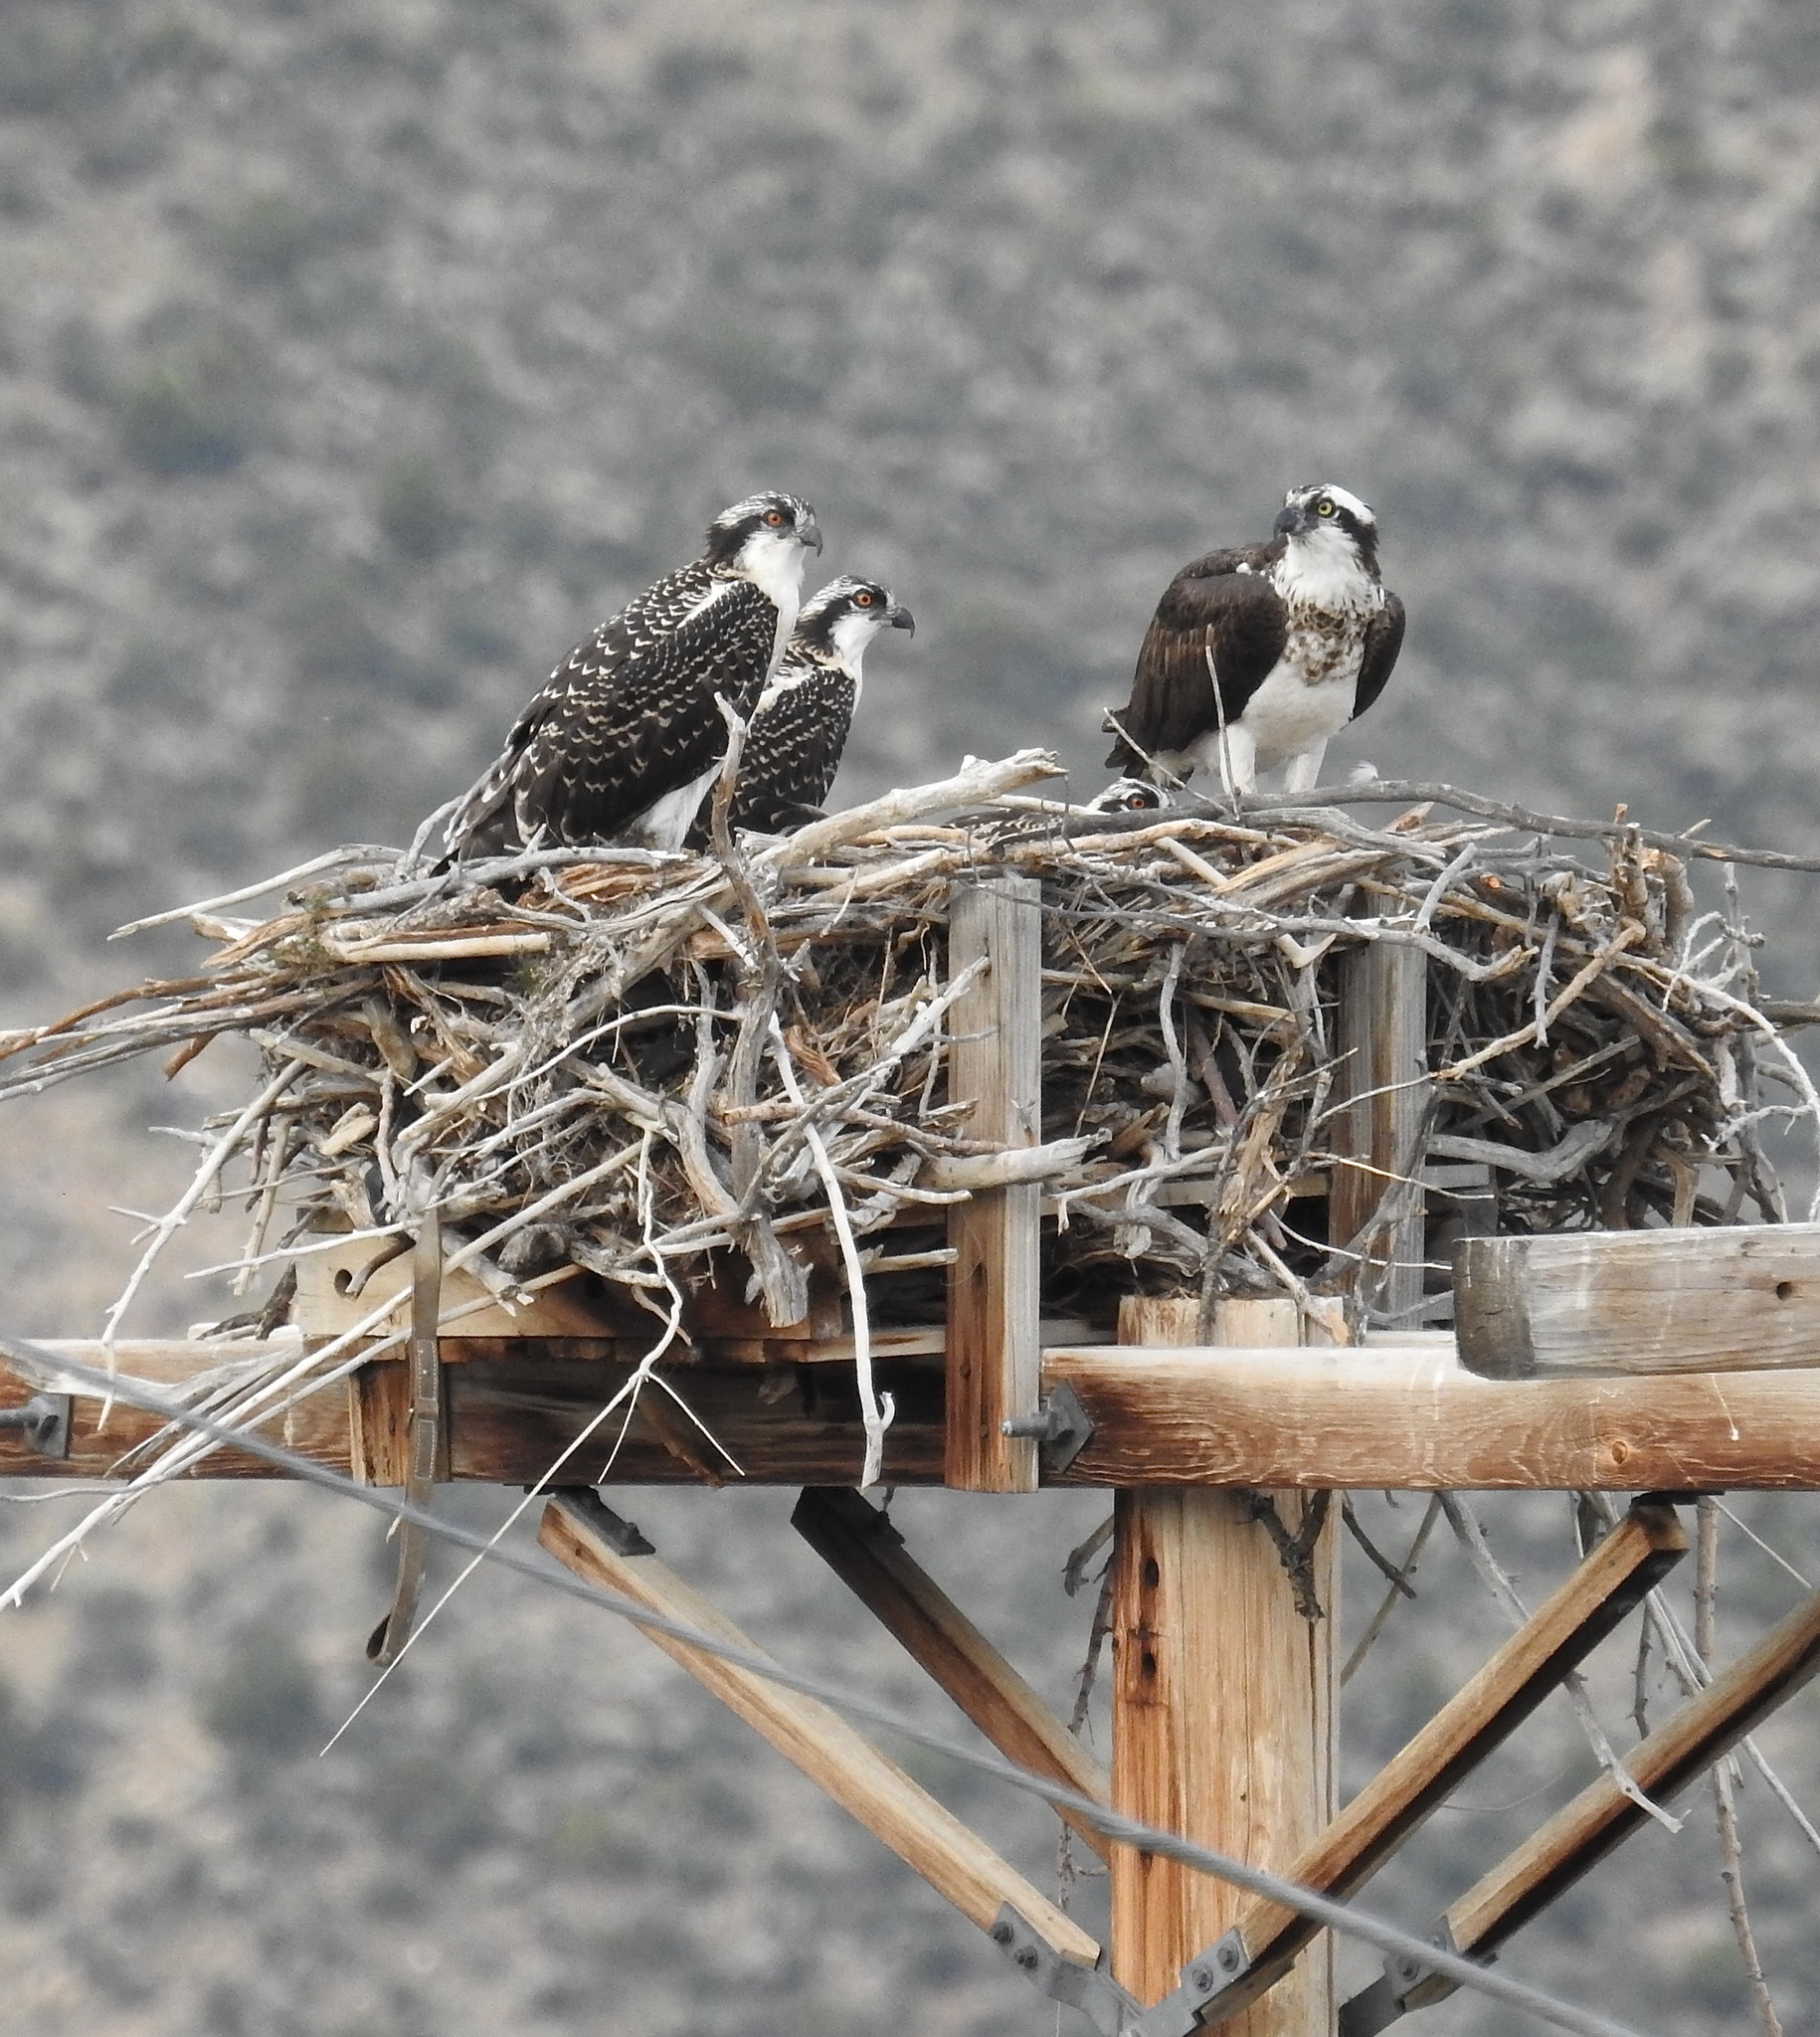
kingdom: Animalia
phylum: Chordata
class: Aves
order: Accipitriformes
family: Pandionidae
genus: Pandion
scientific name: Pandion haliaetus
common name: Osprey
